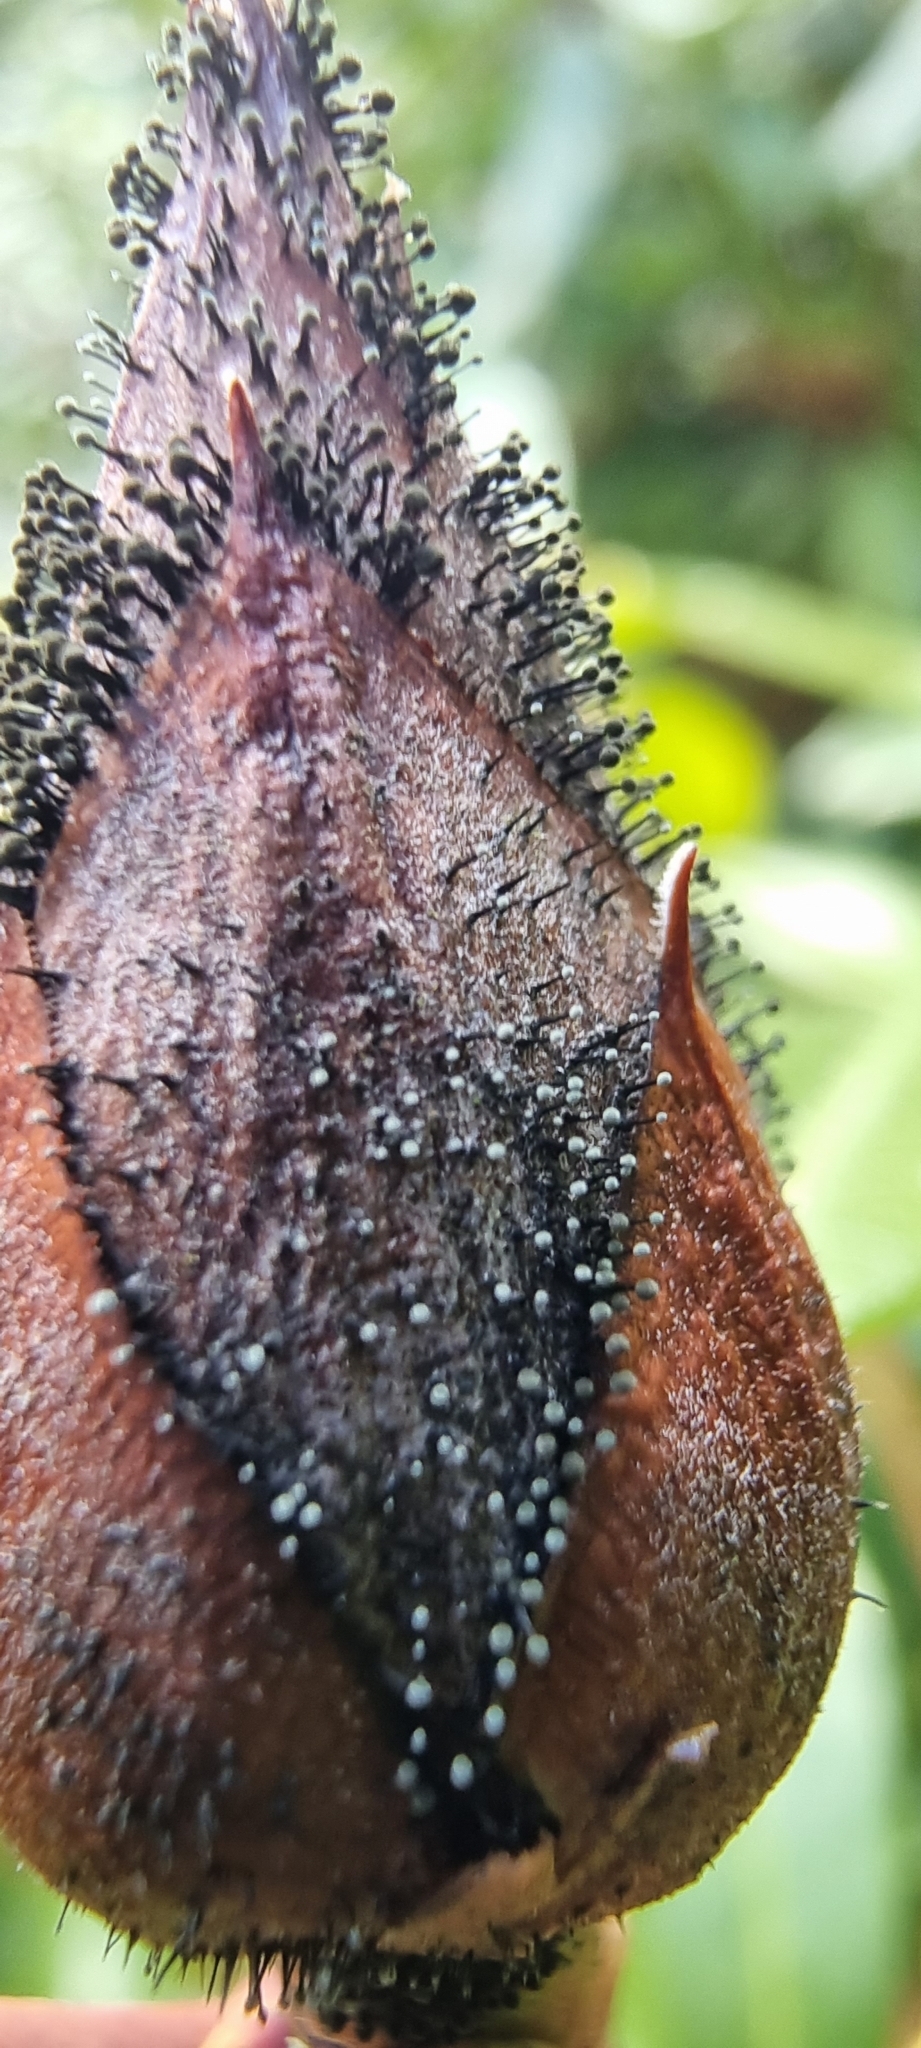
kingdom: Fungi
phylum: Ascomycota
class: Dothideomycetes
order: Pleosporales
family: Melanommataceae
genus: Seifertia
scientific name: Seifertia azaleae
